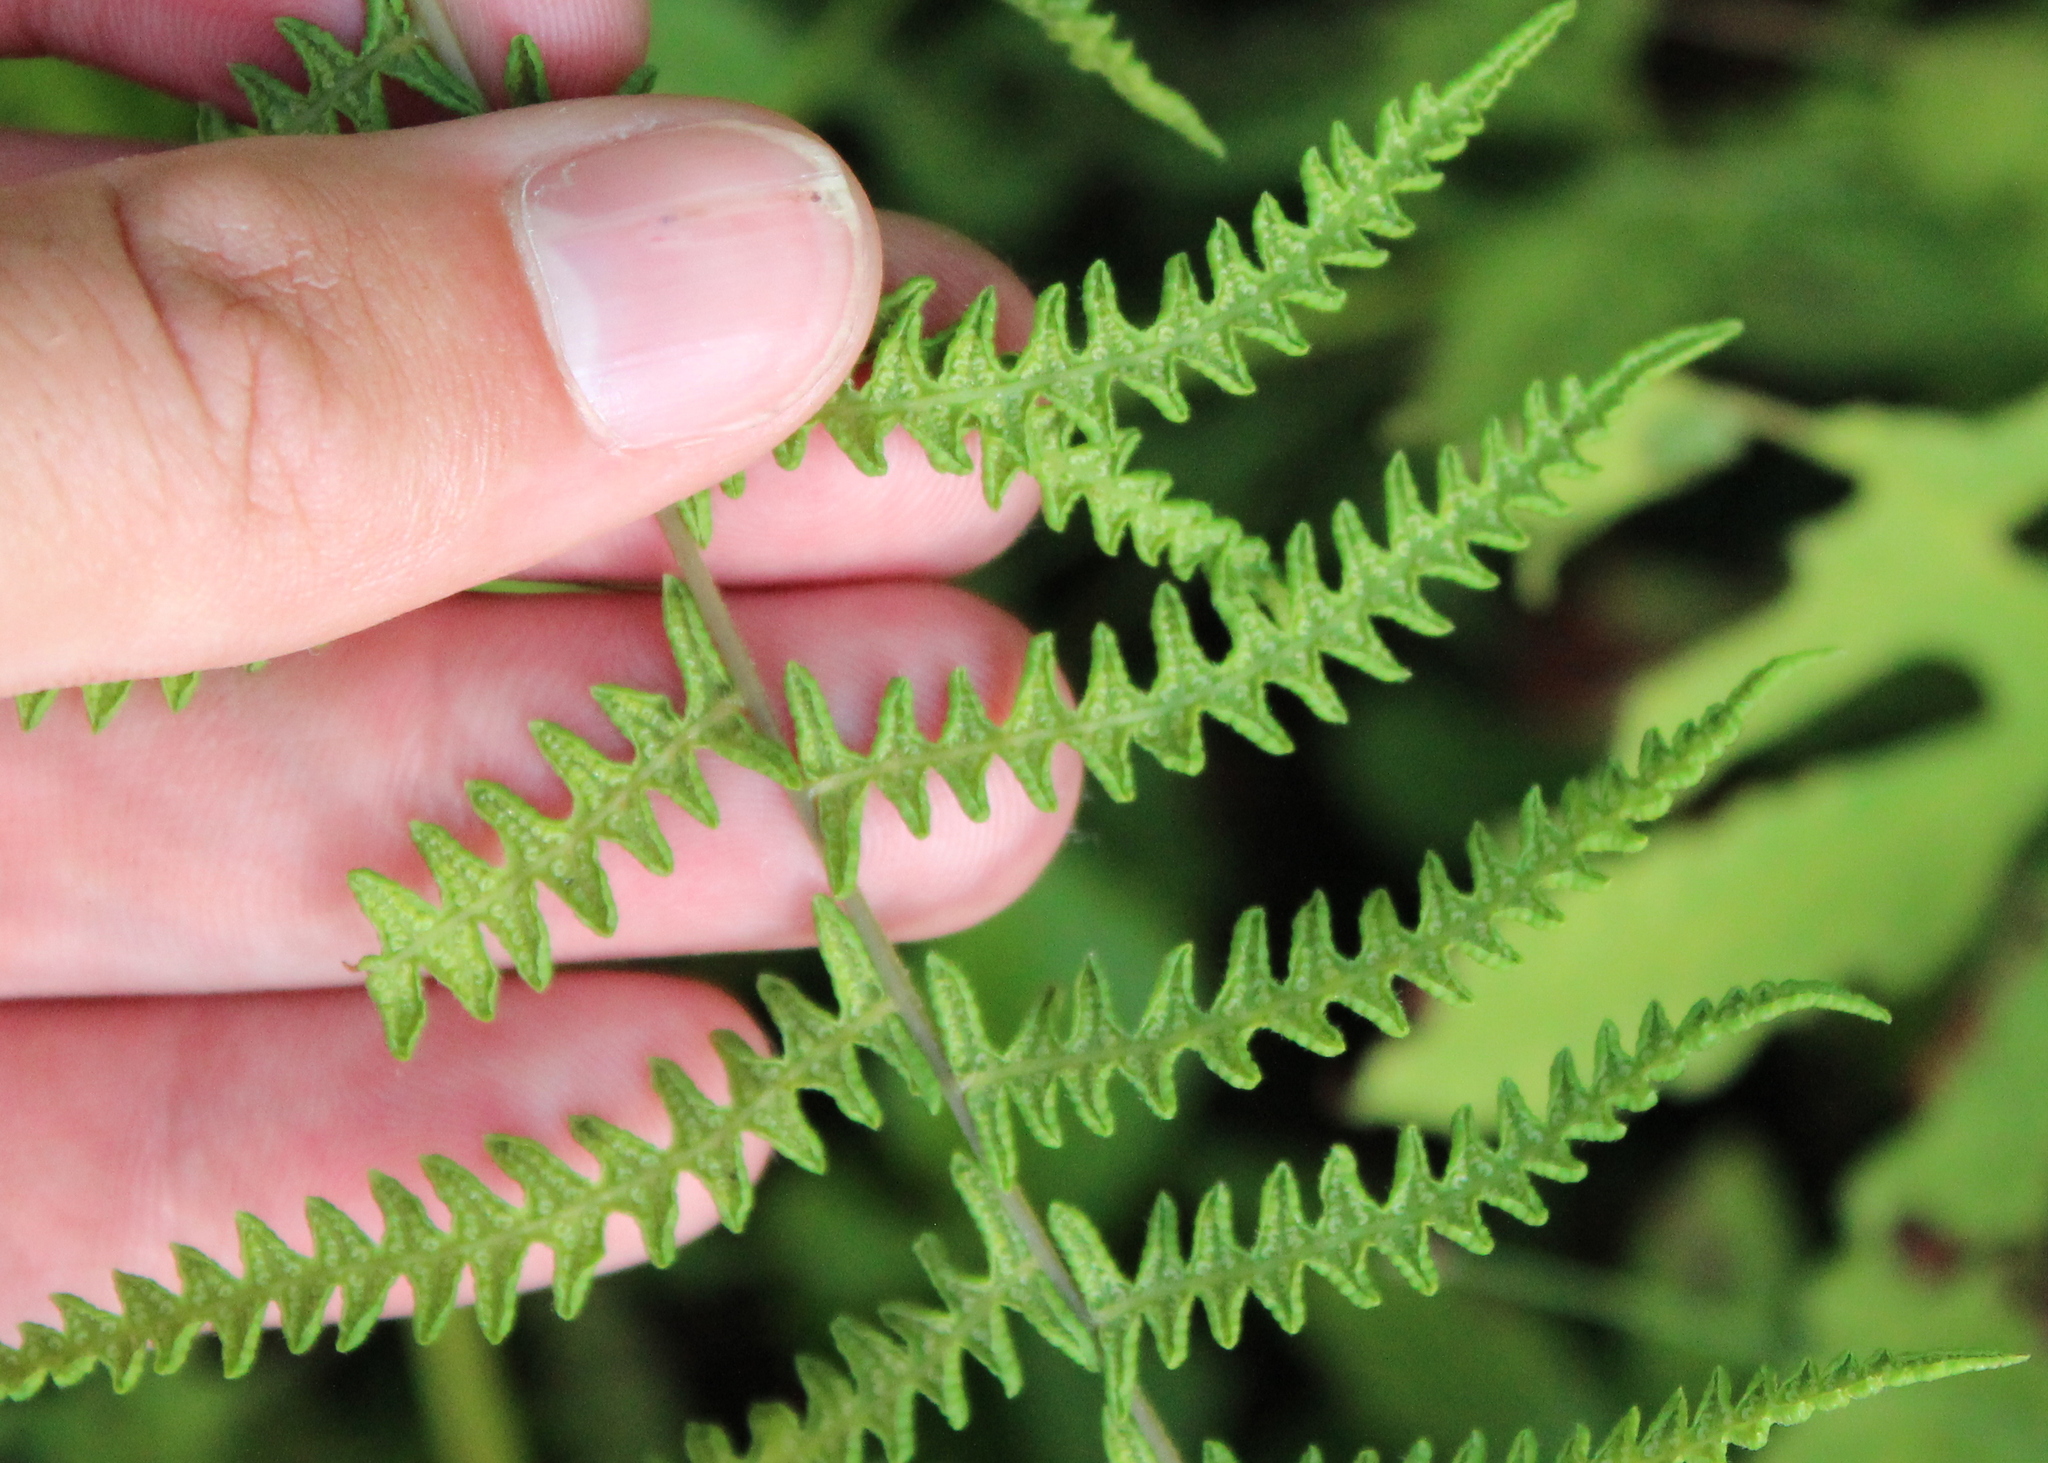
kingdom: Plantae
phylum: Tracheophyta
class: Polypodiopsida
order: Polypodiales
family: Thelypteridaceae
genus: Thelypteris
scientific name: Thelypteris palustris
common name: Marsh fern
